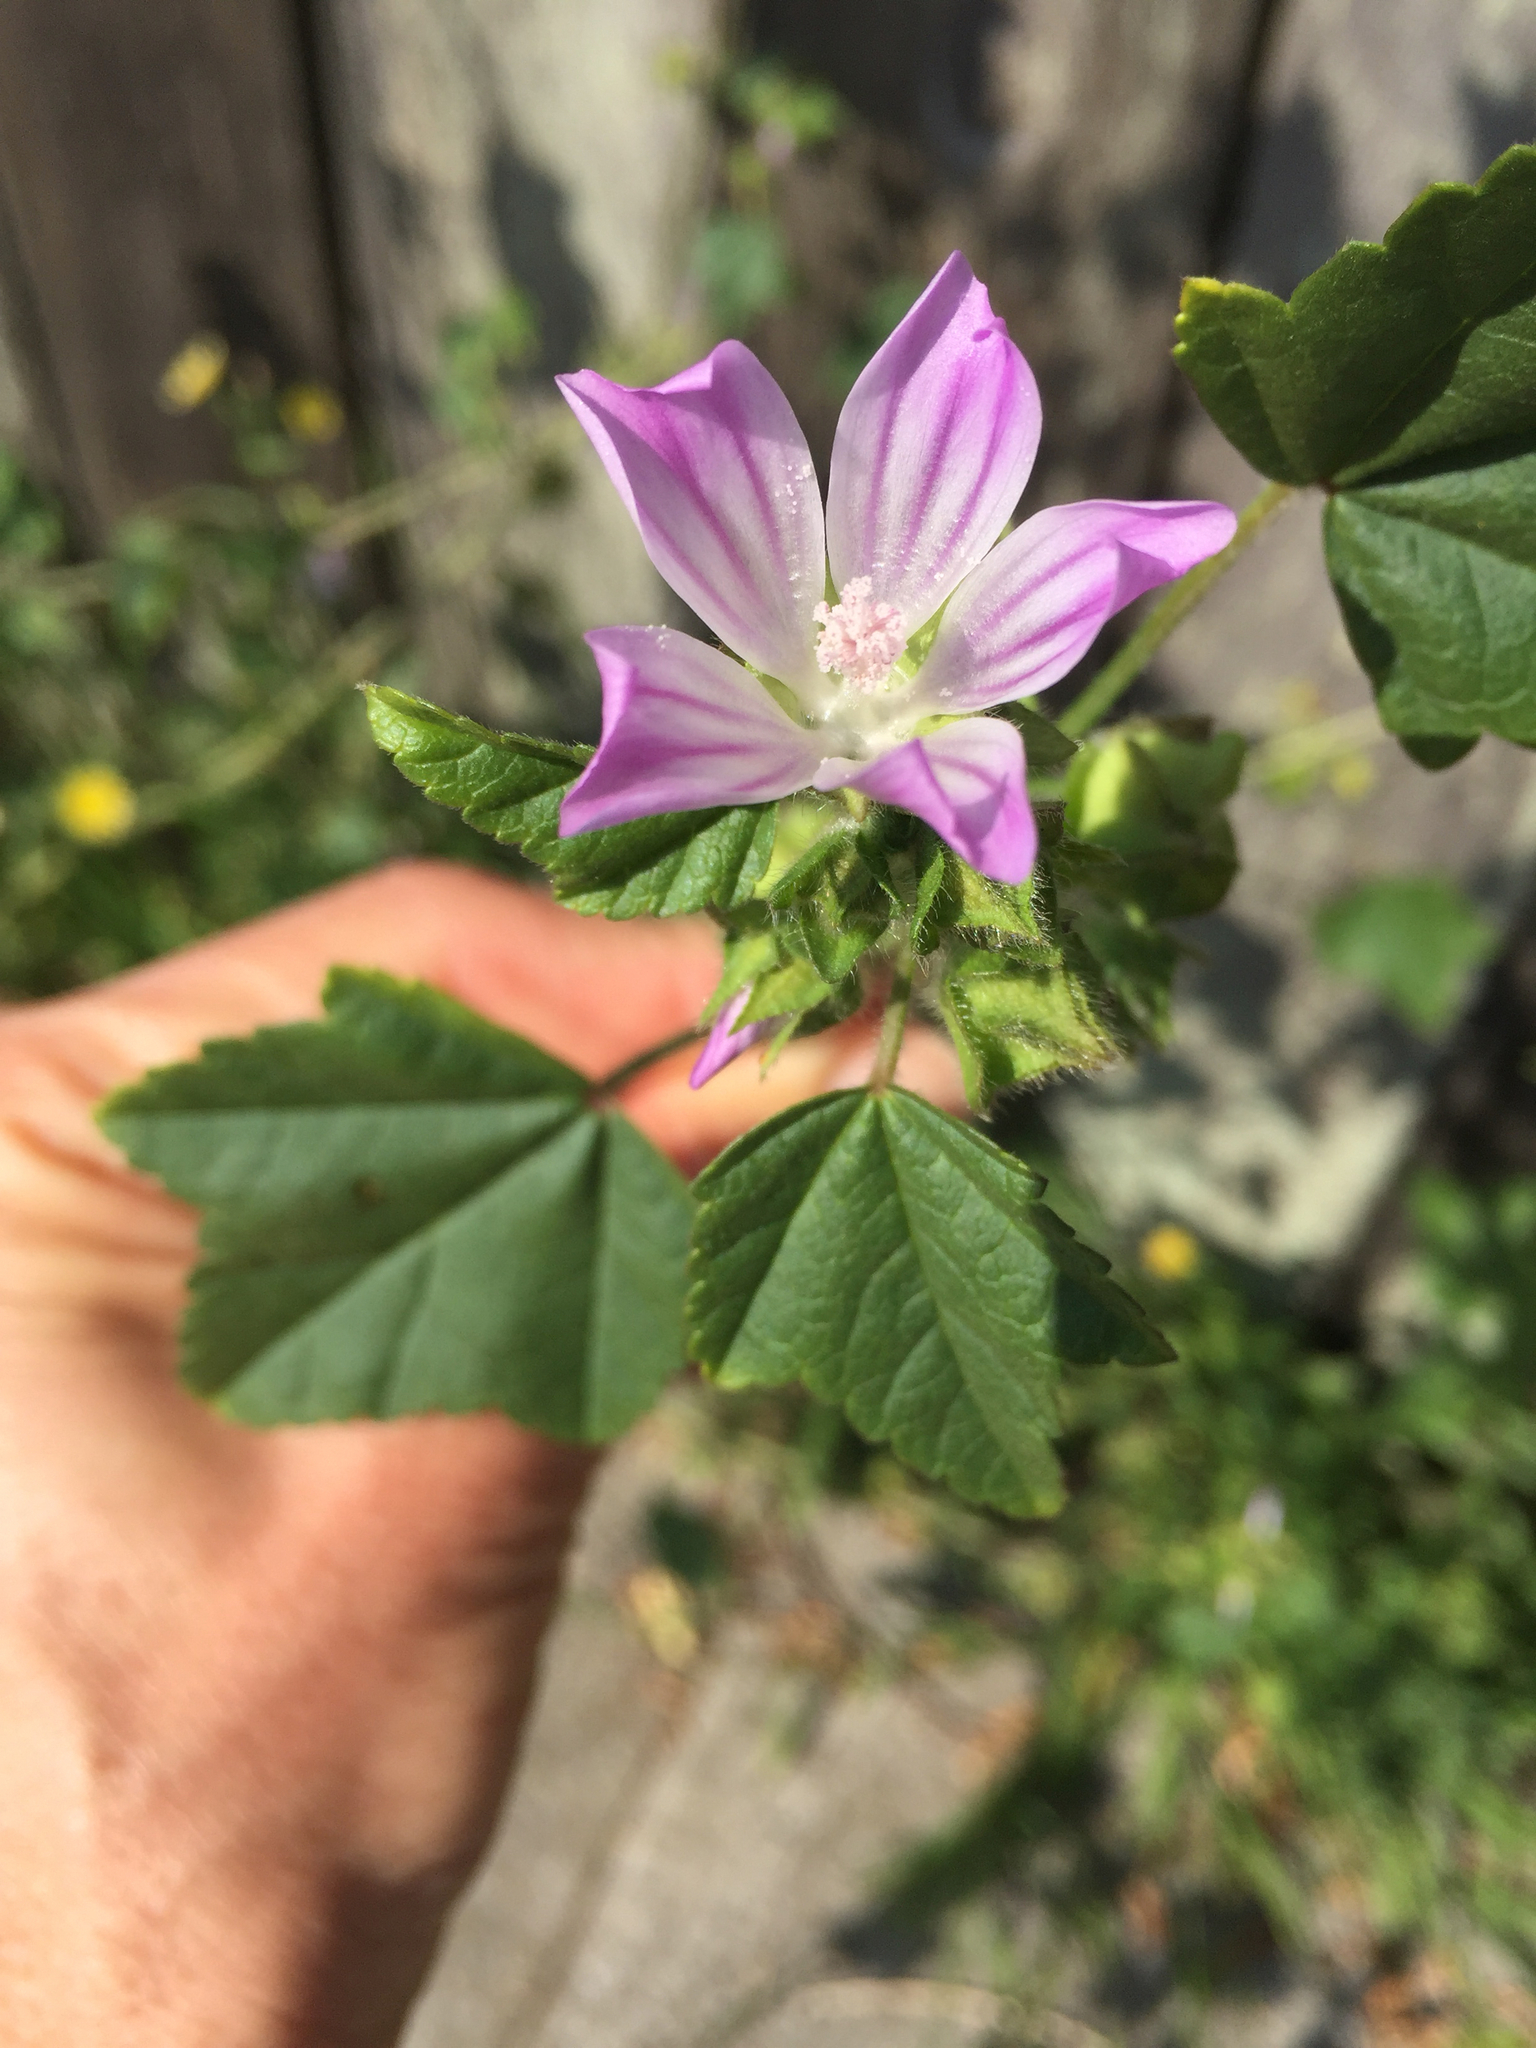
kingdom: Plantae
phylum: Tracheophyta
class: Magnoliopsida
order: Malvales
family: Malvaceae
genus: Malva
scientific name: Malva multiflora
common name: Cheeseweed
